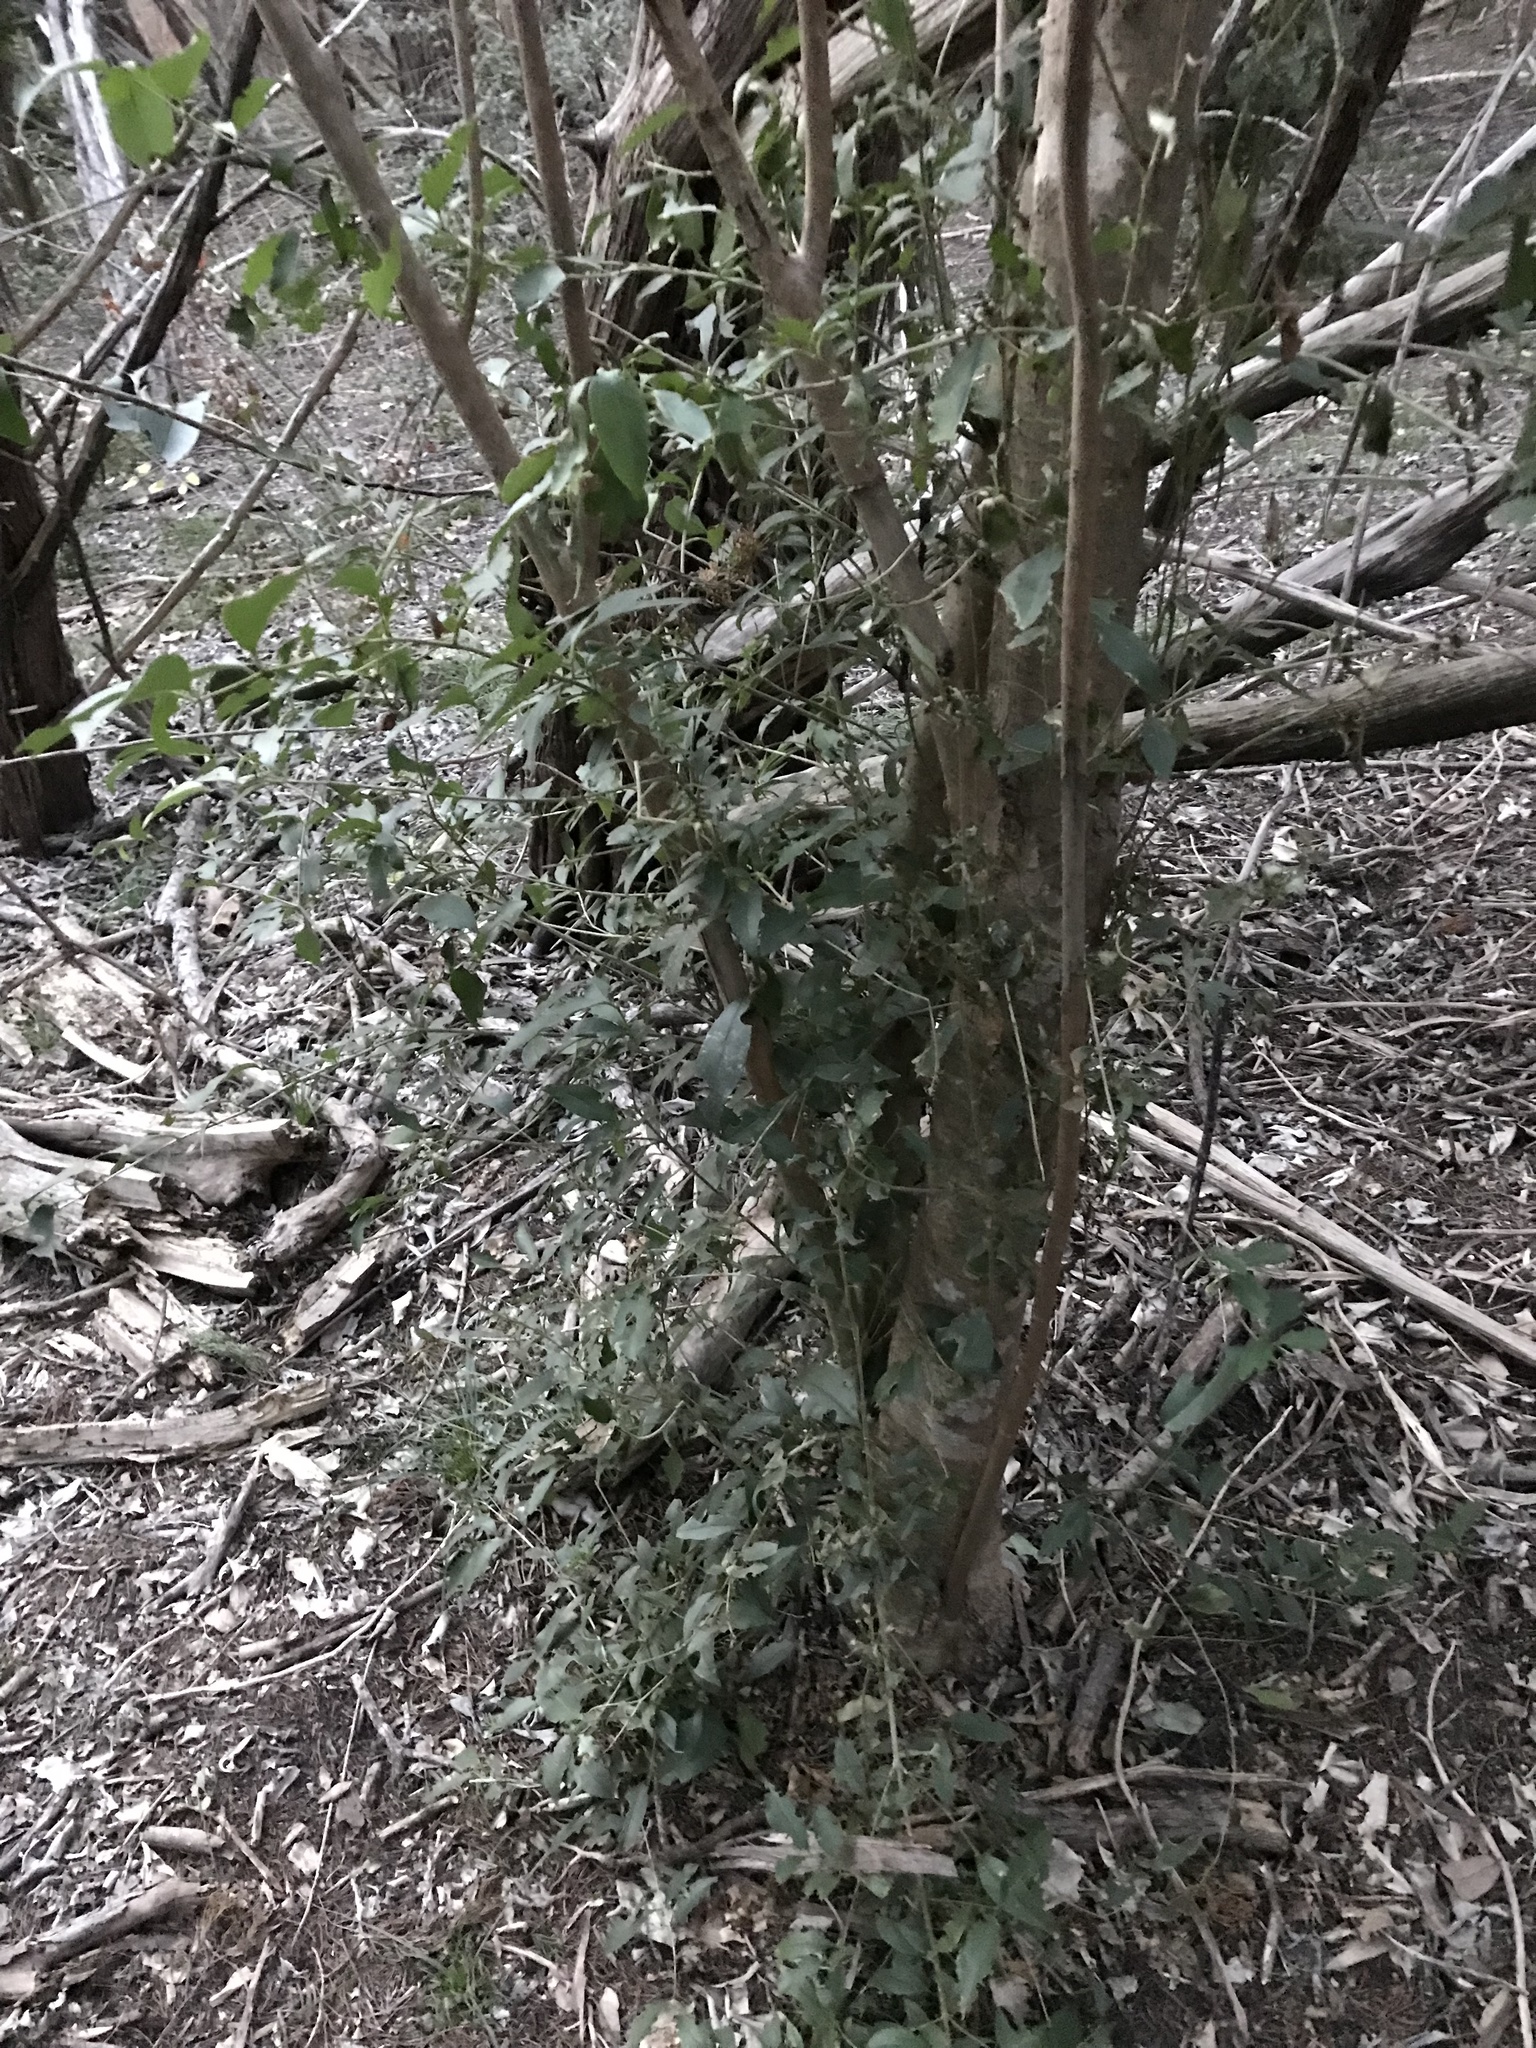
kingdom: Plantae
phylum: Tracheophyta
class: Magnoliopsida
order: Lamiales
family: Oleaceae
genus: Ligustrum
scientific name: Ligustrum lucidum
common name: Glossy privet
